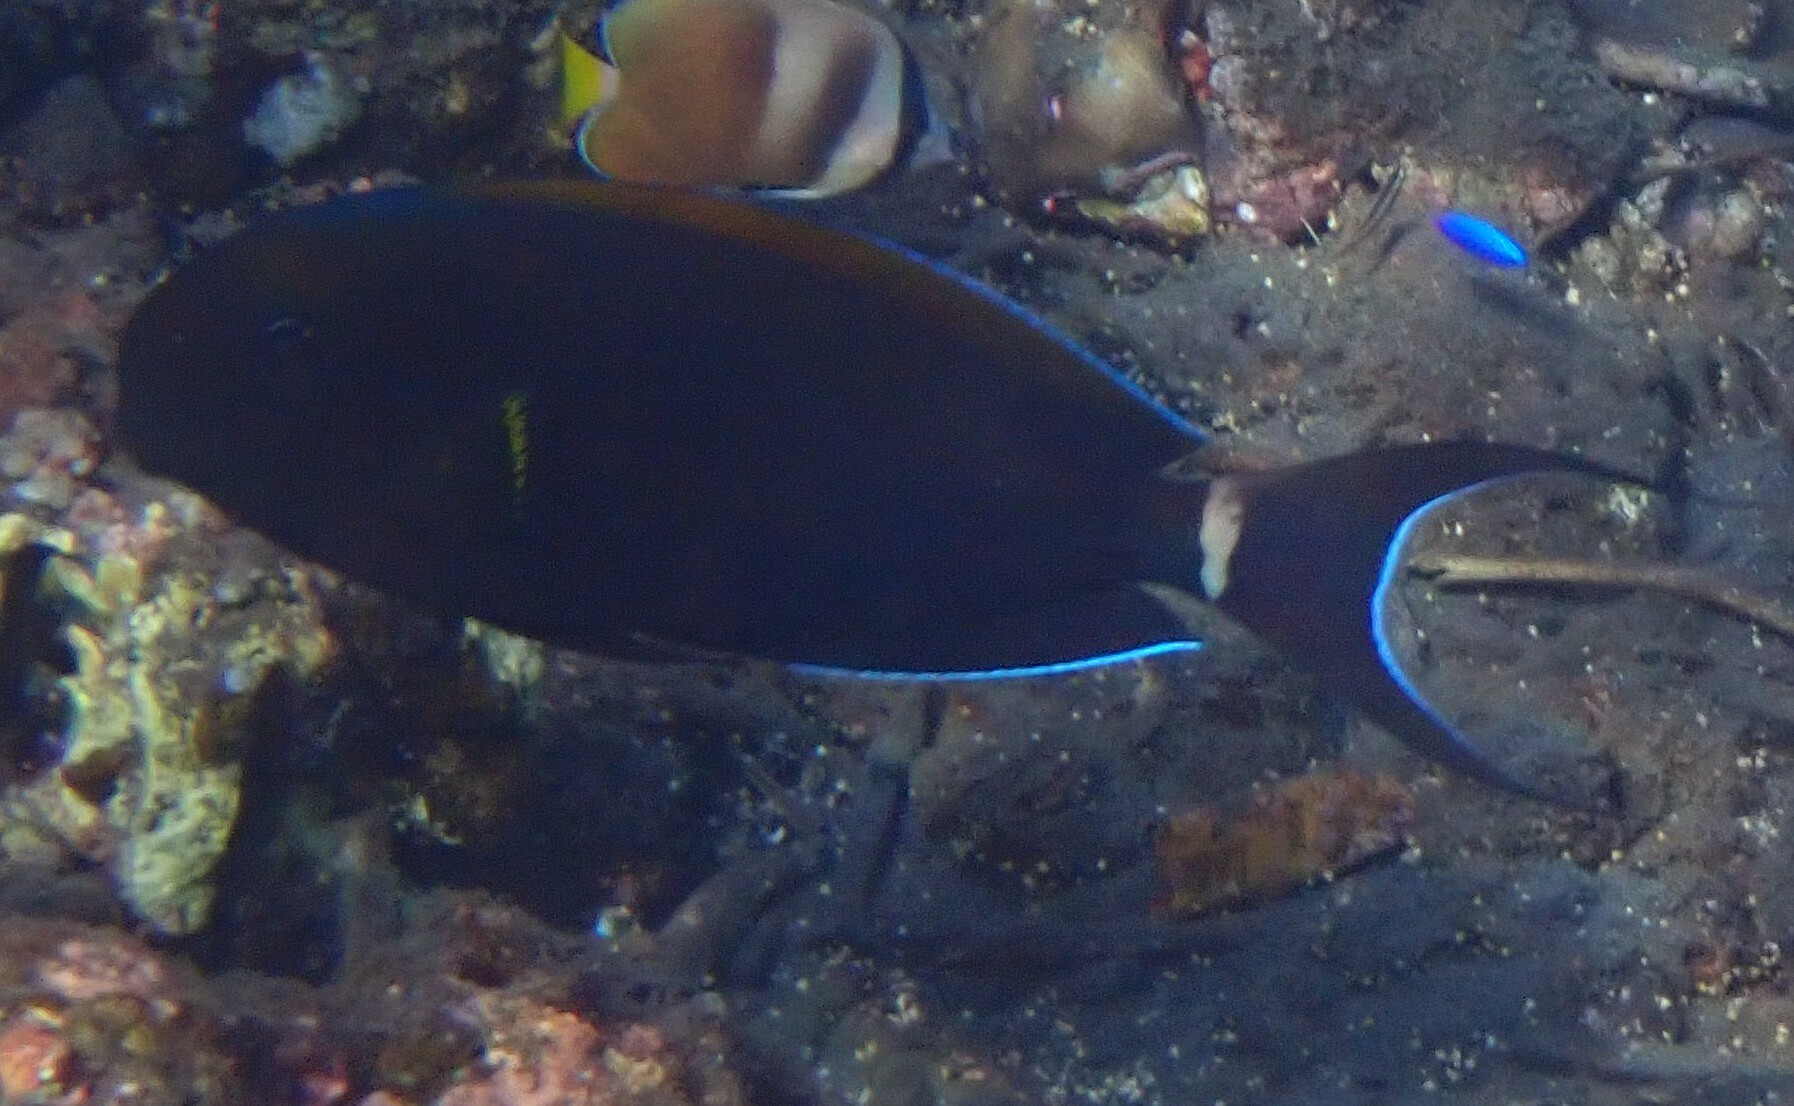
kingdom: Animalia
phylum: Chordata
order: Perciformes
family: Acanthuridae
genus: Acanthurus
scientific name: Acanthurus nigricauda
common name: Black-barred surgeonfish
